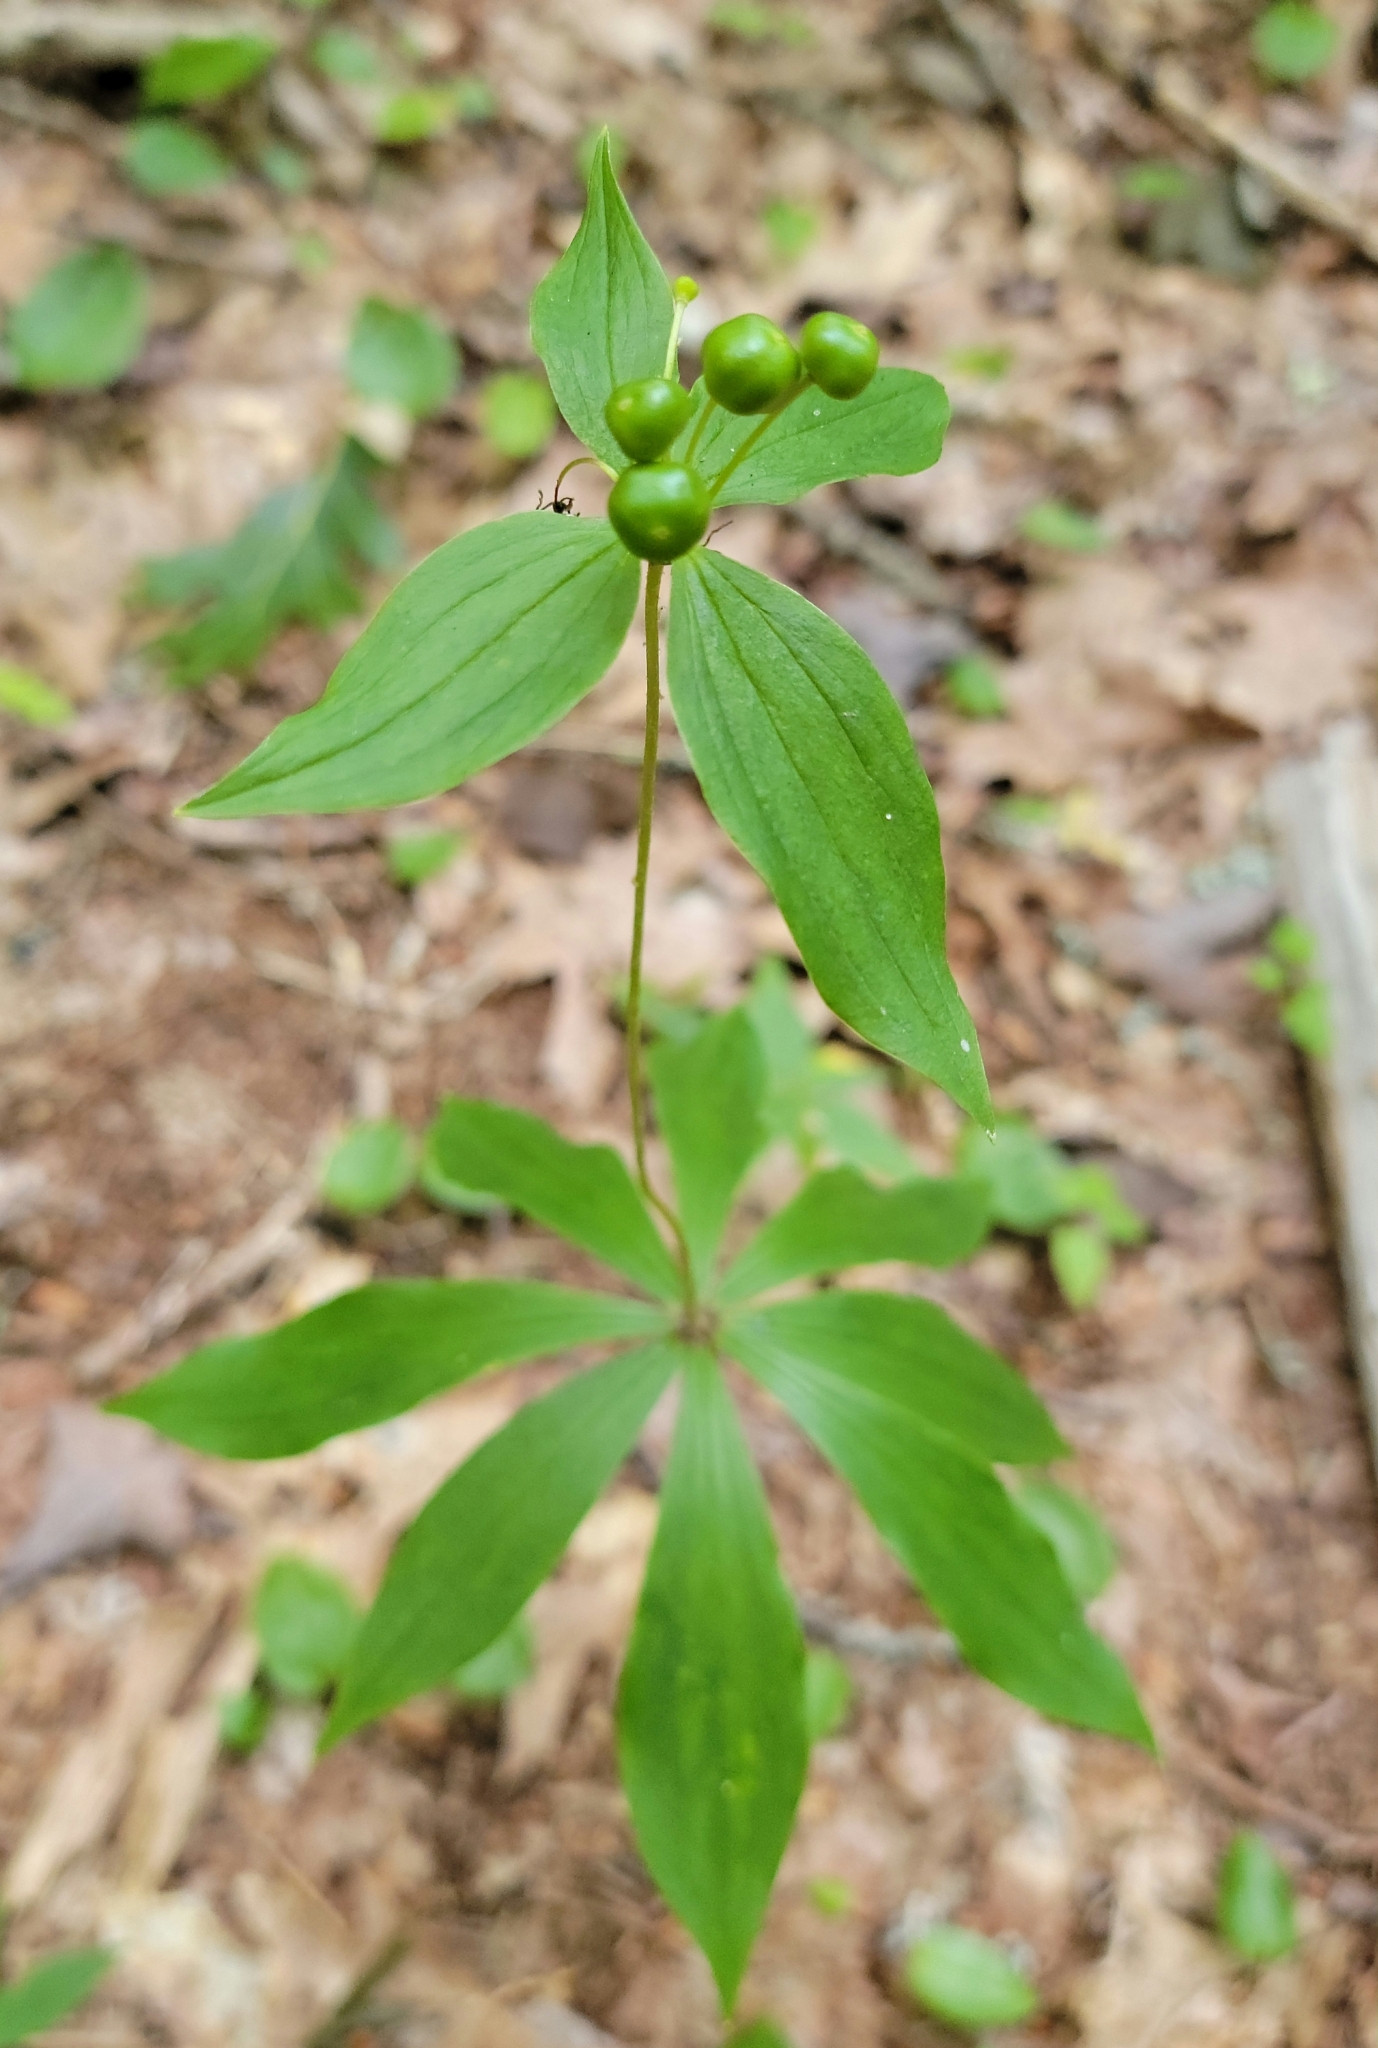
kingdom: Plantae
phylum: Tracheophyta
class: Liliopsida
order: Liliales
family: Liliaceae
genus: Medeola
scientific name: Medeola virginiana
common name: Indian cucumber-root
